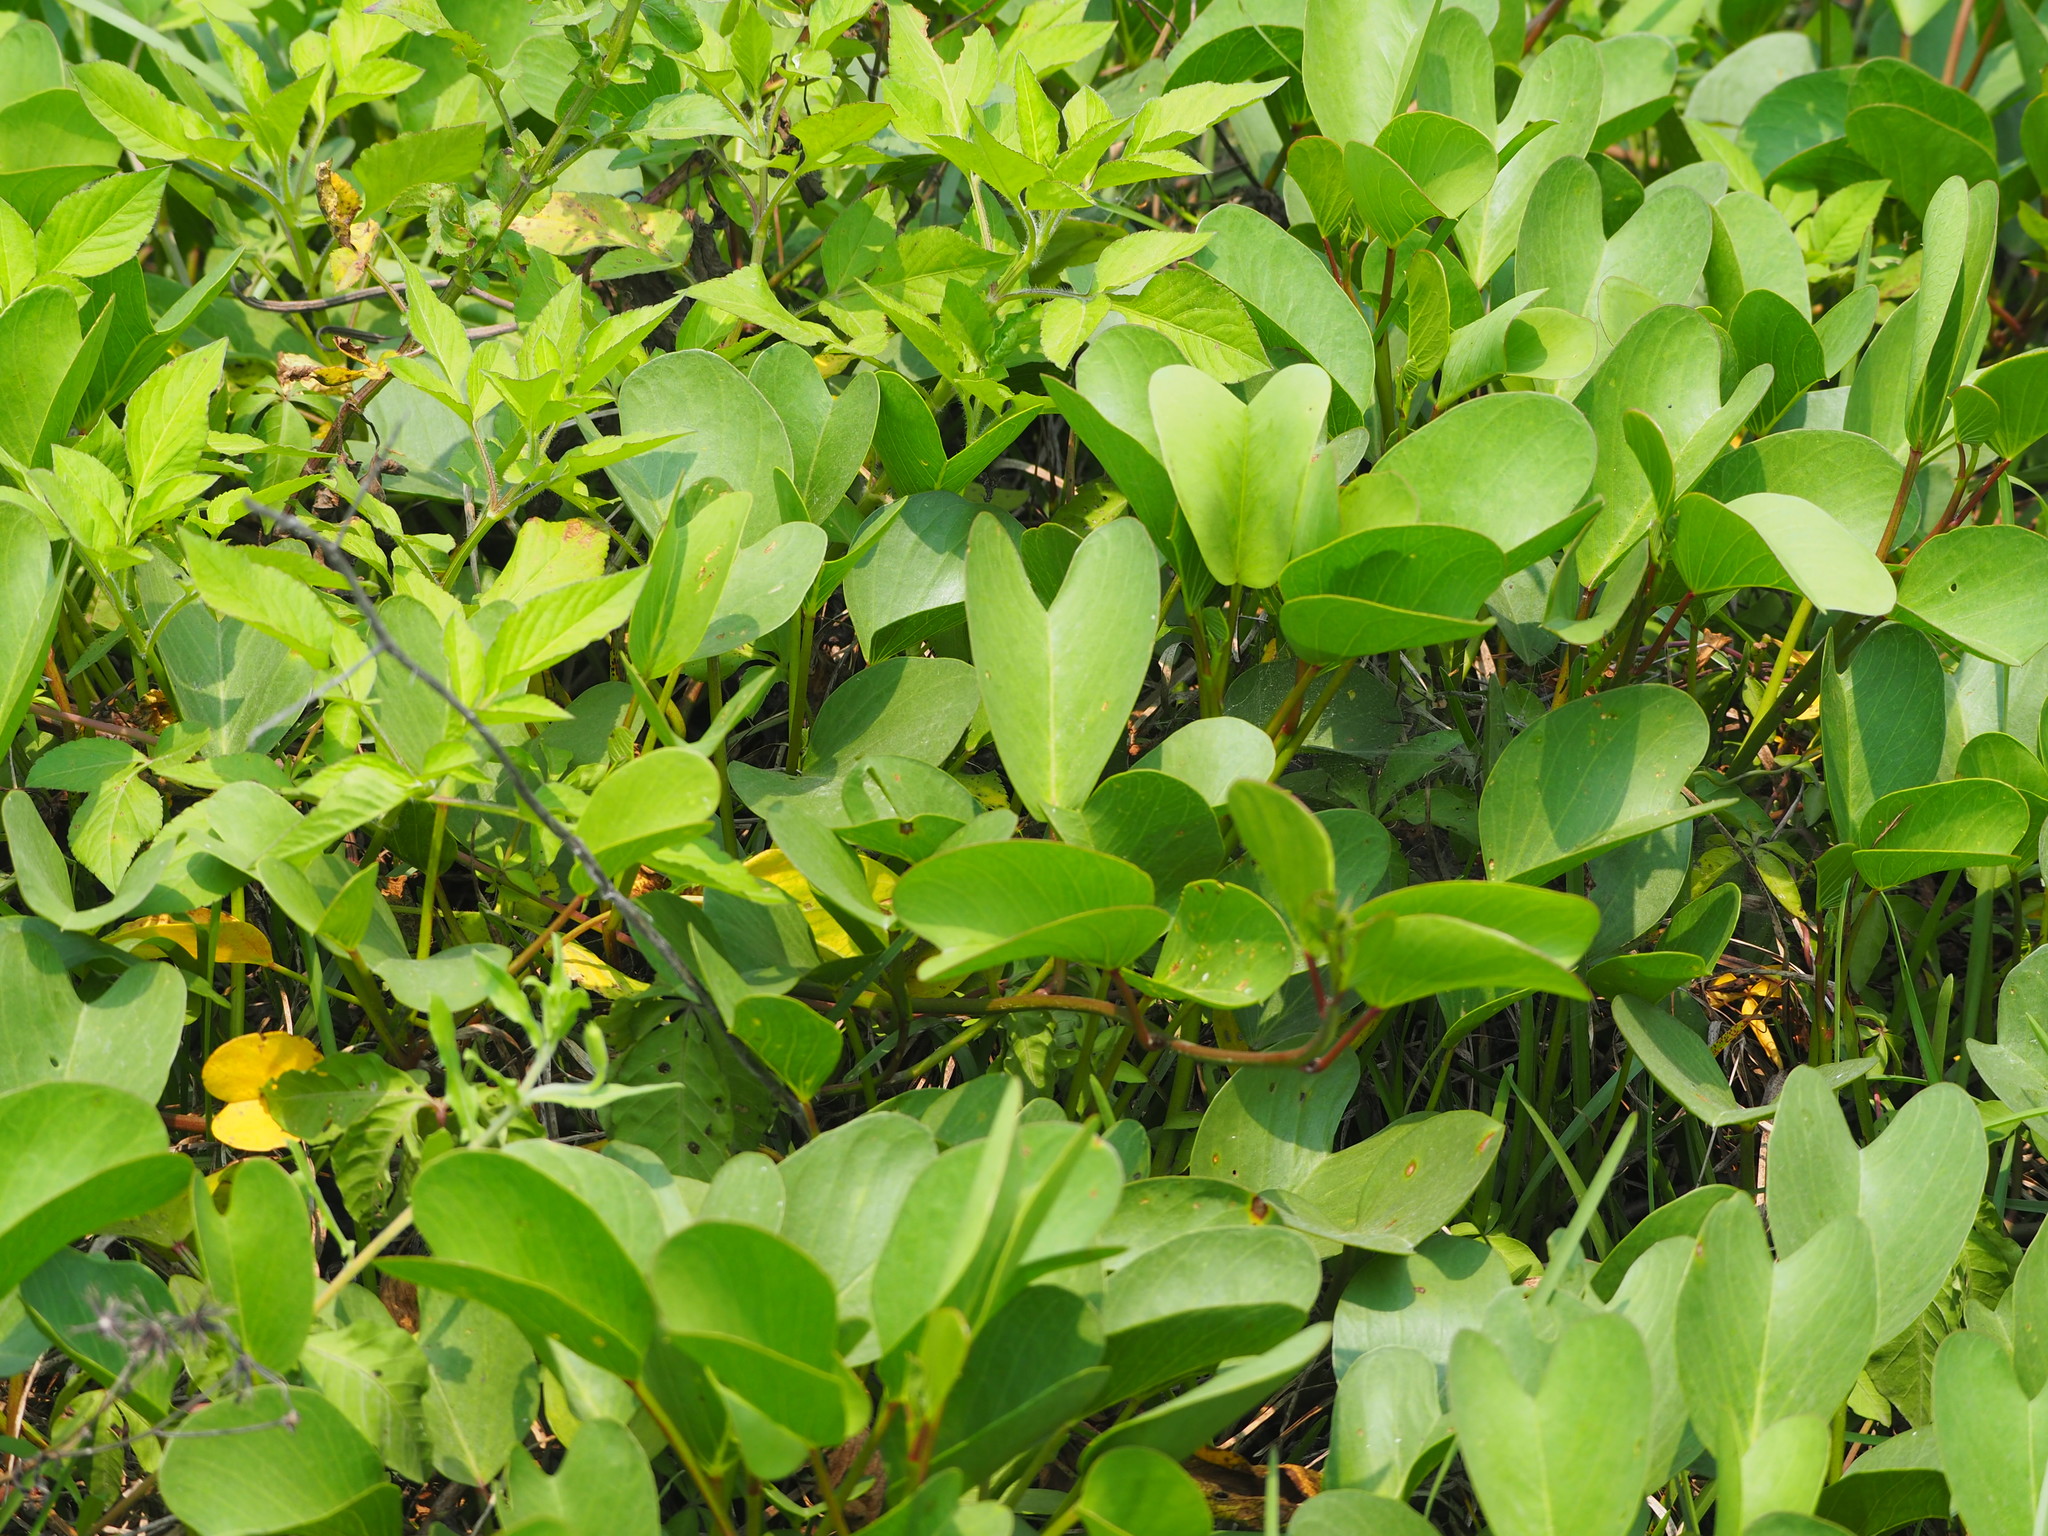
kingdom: Plantae
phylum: Tracheophyta
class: Magnoliopsida
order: Solanales
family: Convolvulaceae
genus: Ipomoea
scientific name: Ipomoea pes-caprae
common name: Beach morning glory
